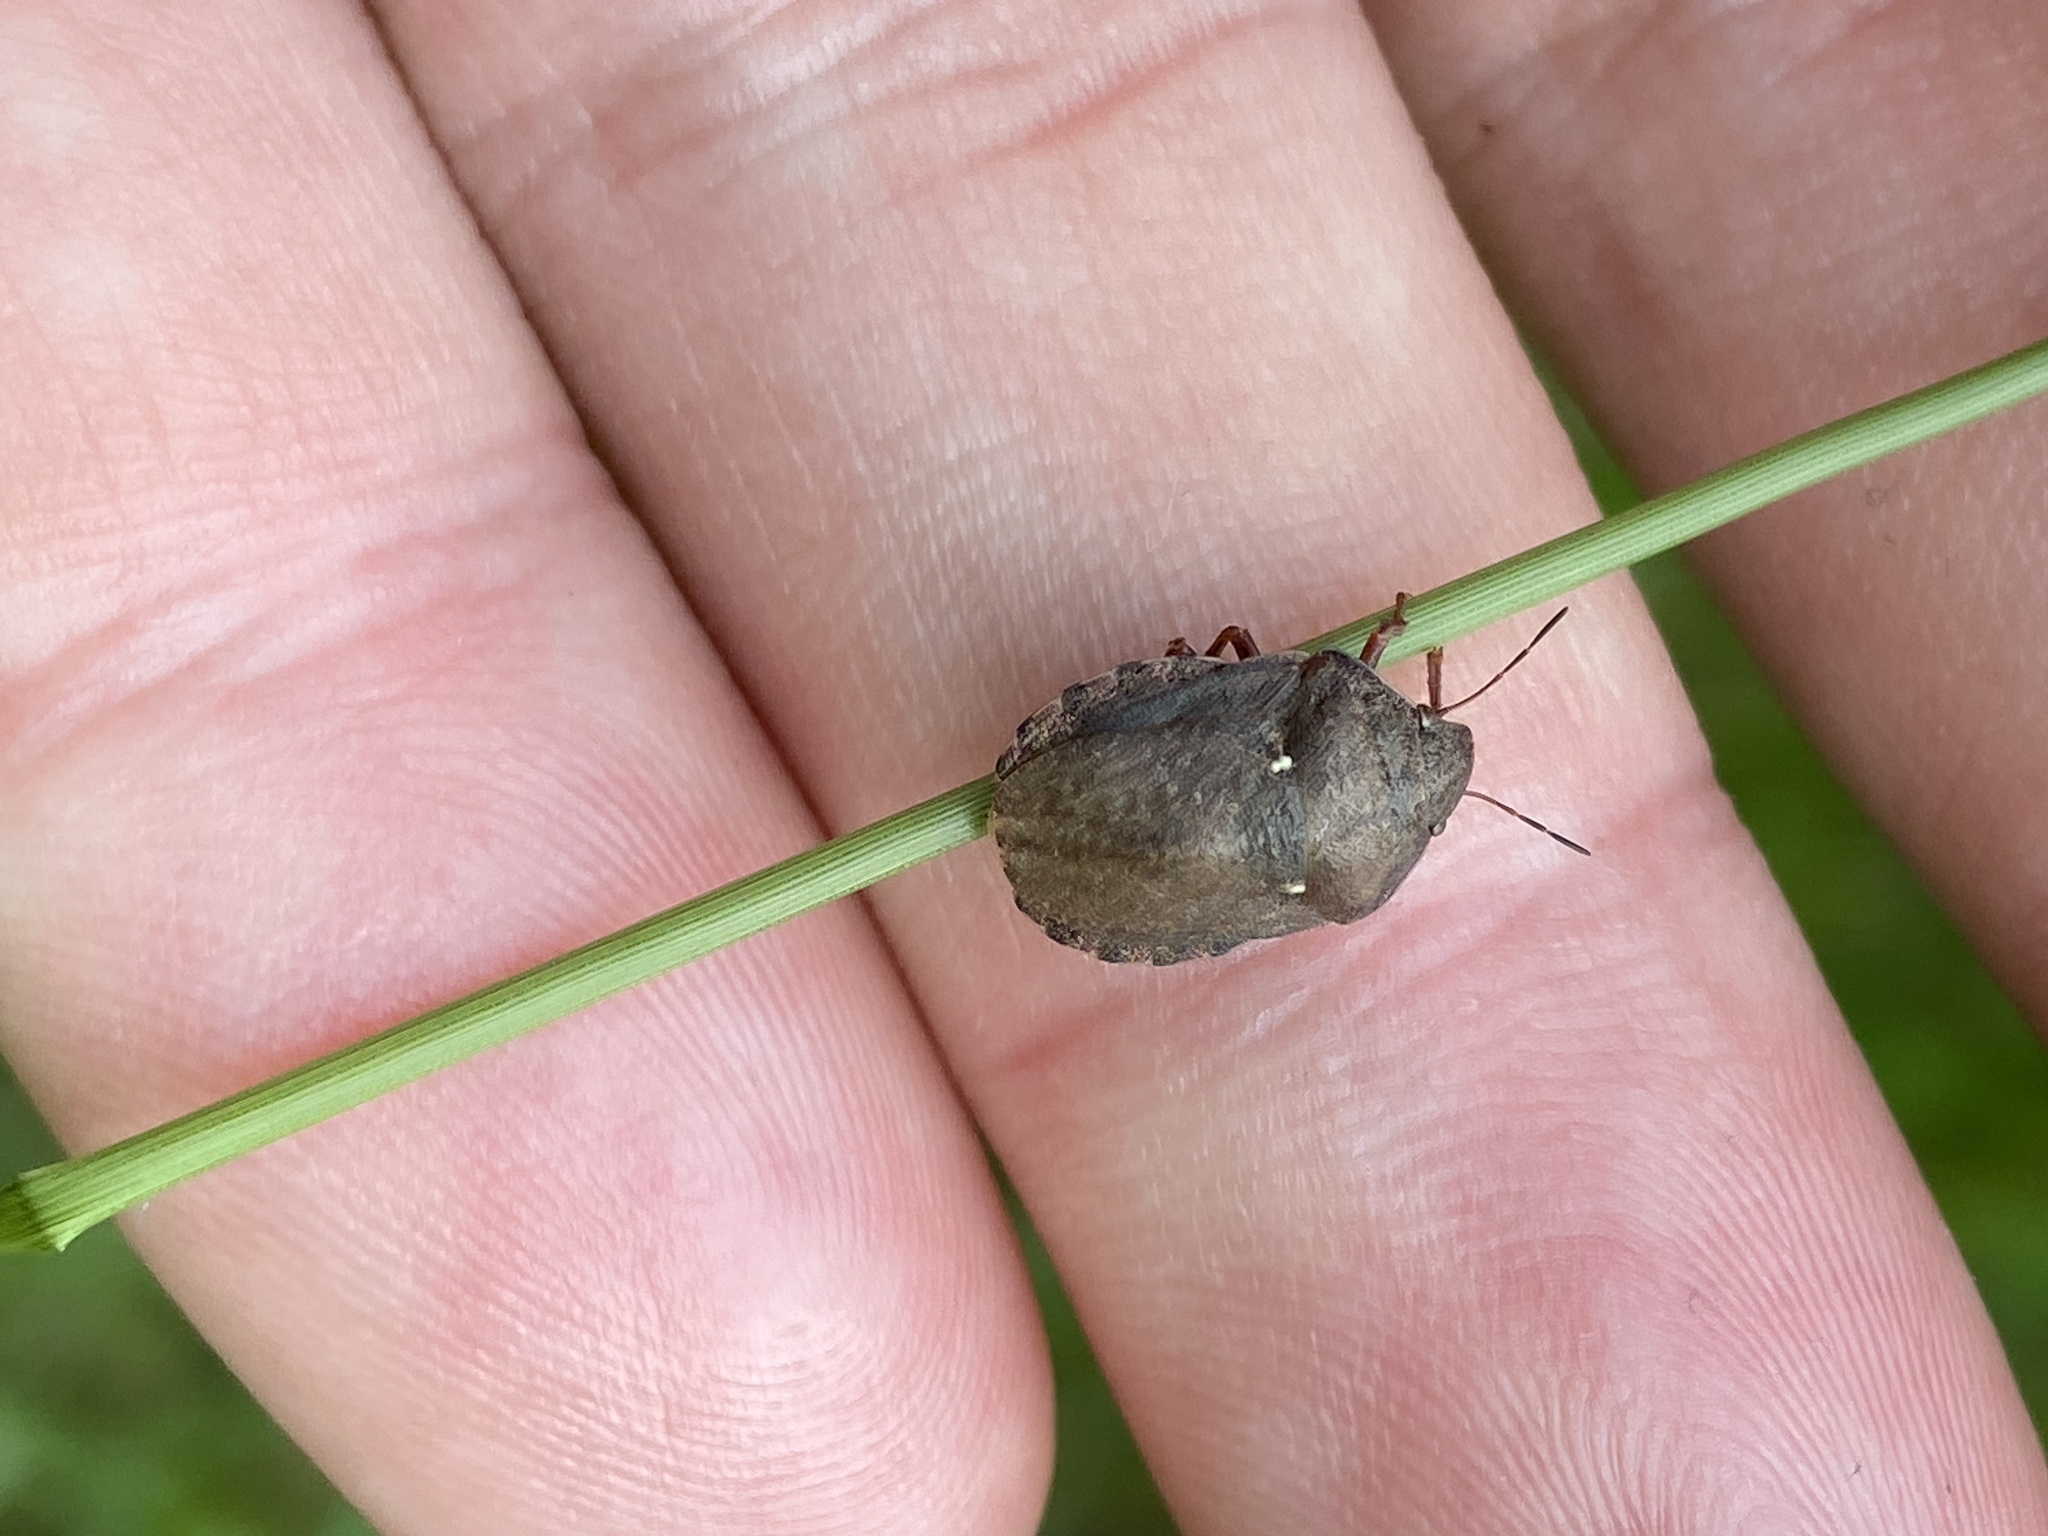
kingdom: Animalia
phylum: Arthropoda
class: Insecta
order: Hemiptera
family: Scutelleridae
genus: Eurygaster
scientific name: Eurygaster maura
